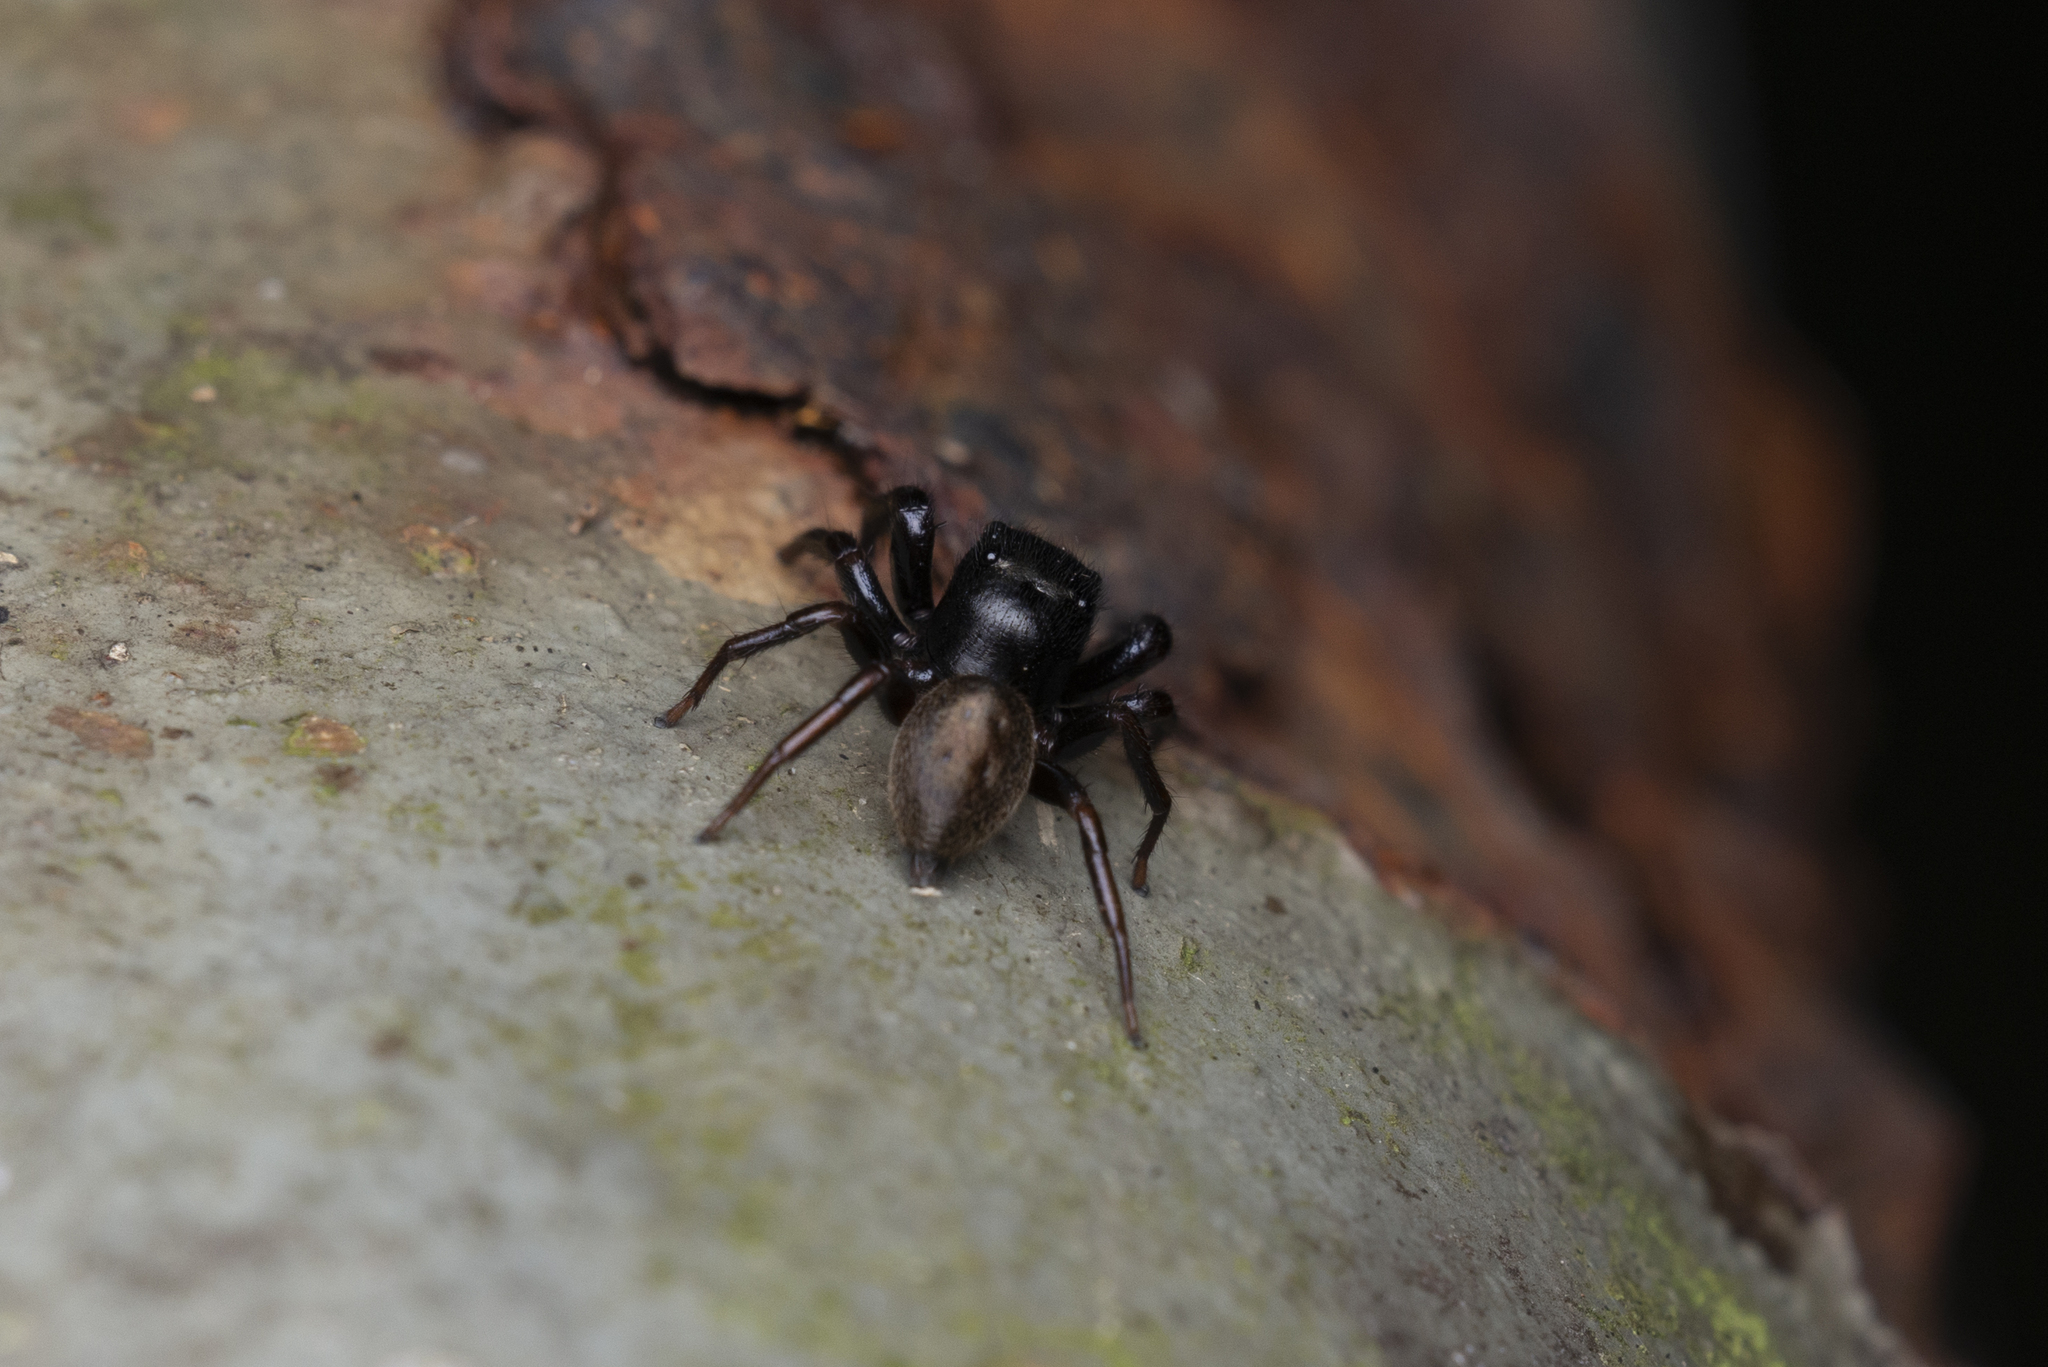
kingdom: Animalia
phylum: Arthropoda
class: Arachnida
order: Araneae
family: Salticidae
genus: Orcevia
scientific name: Orcevia proszynskii
